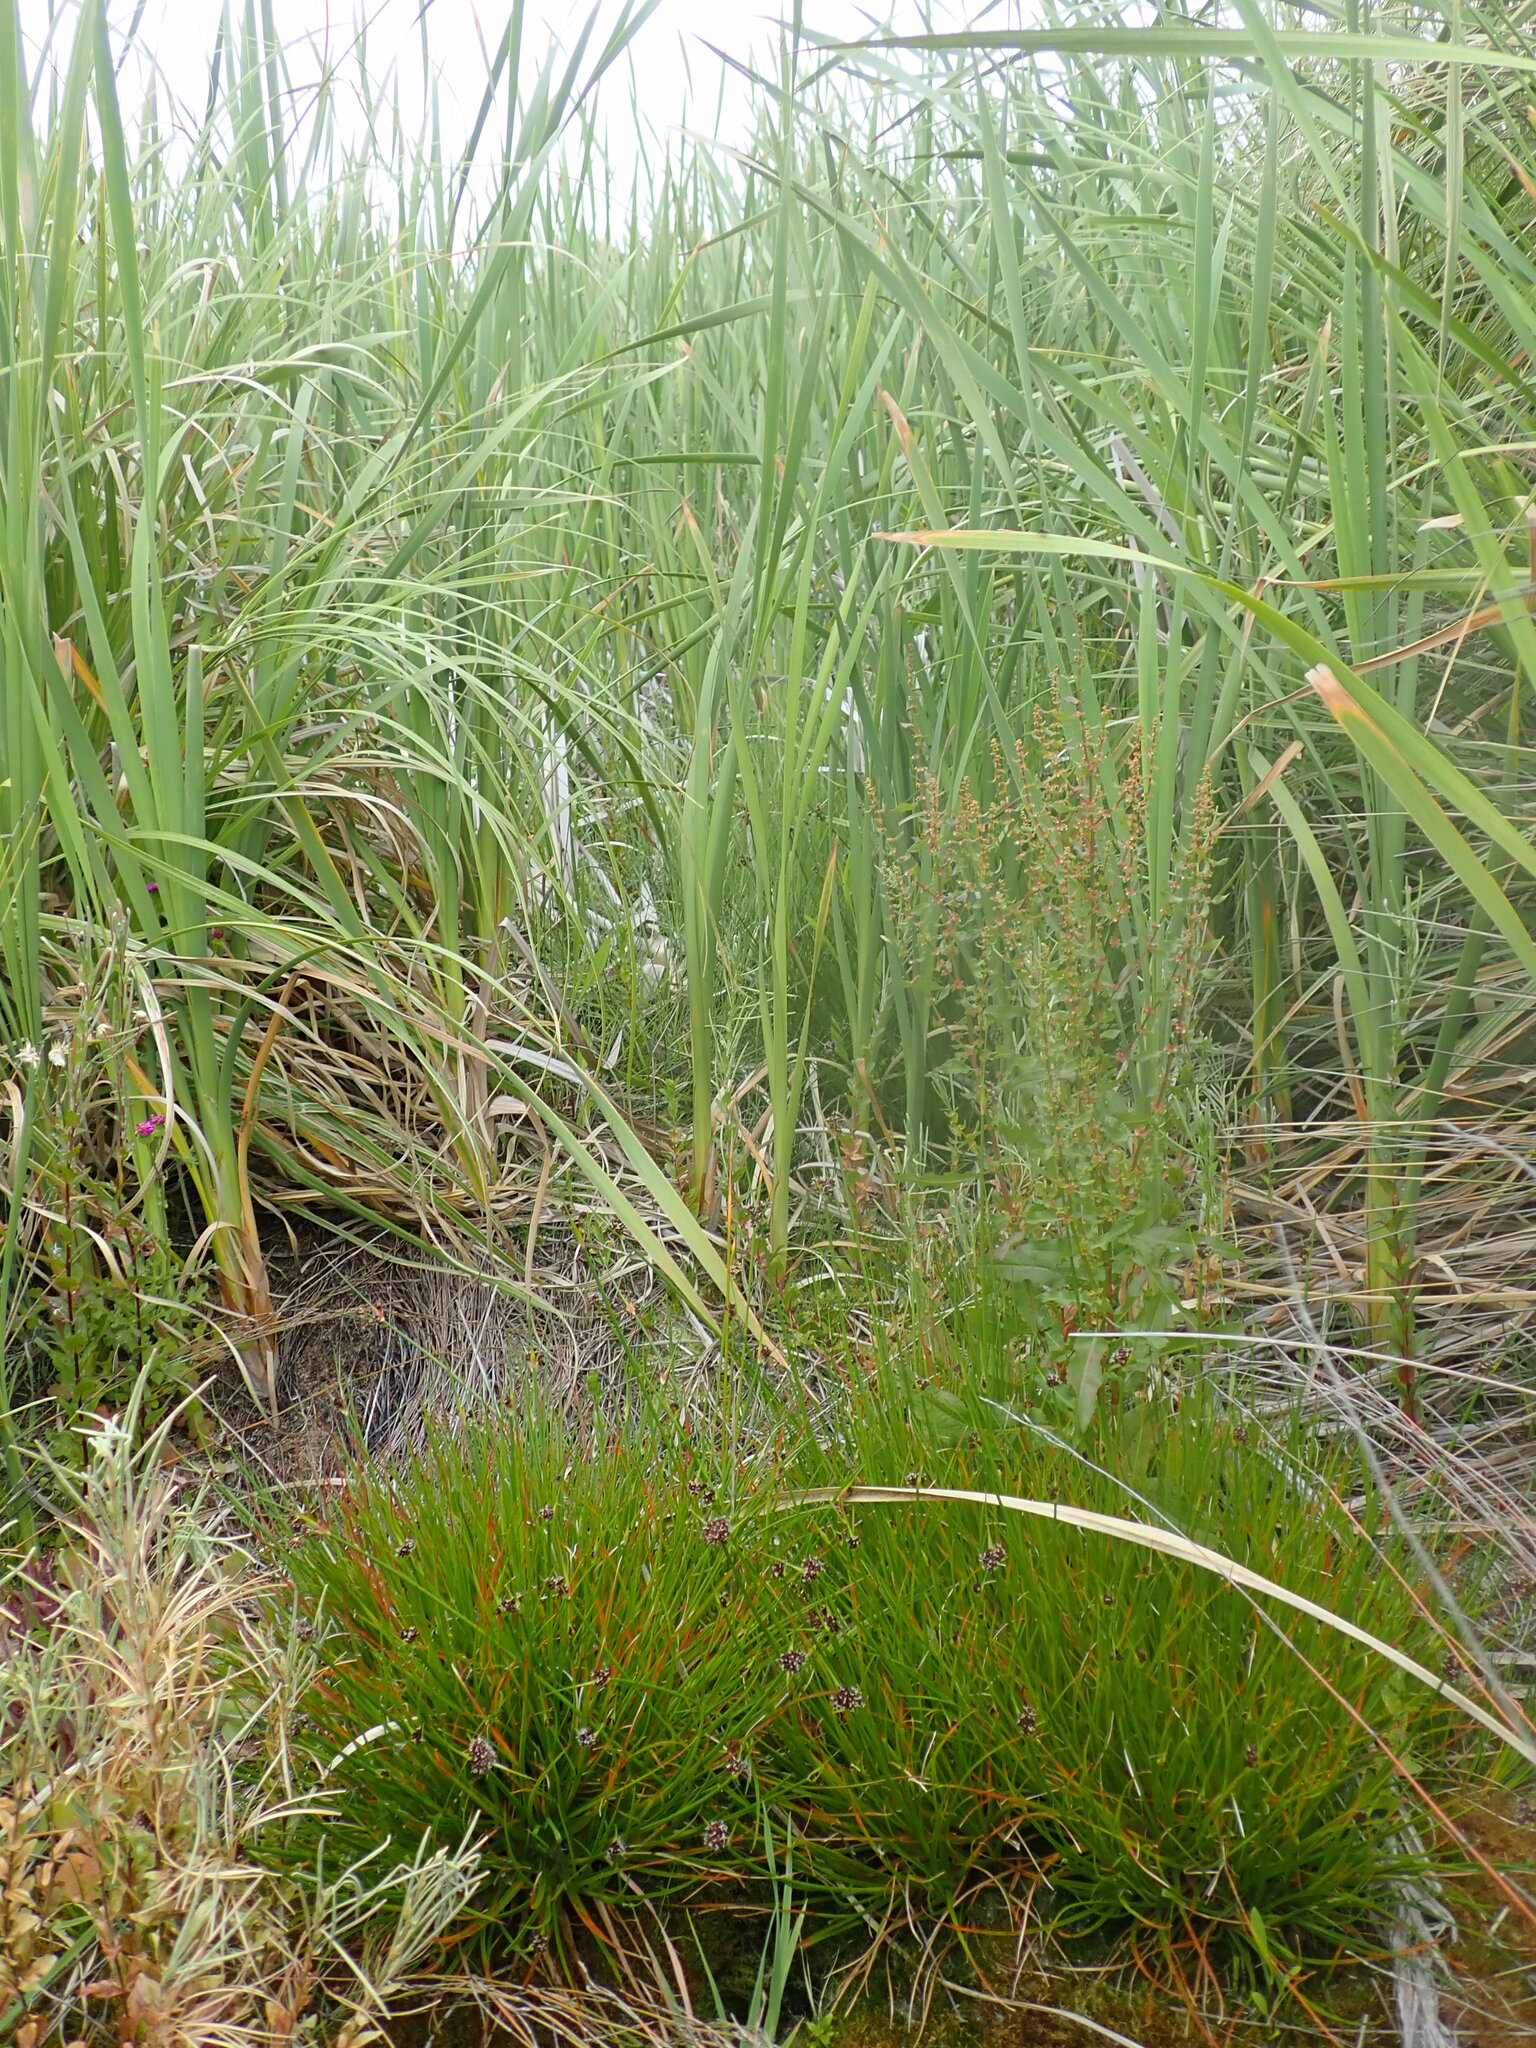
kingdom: Plantae
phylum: Tracheophyta
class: Liliopsida
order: Poales
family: Juncaceae
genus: Juncus
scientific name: Juncus caespiticius
